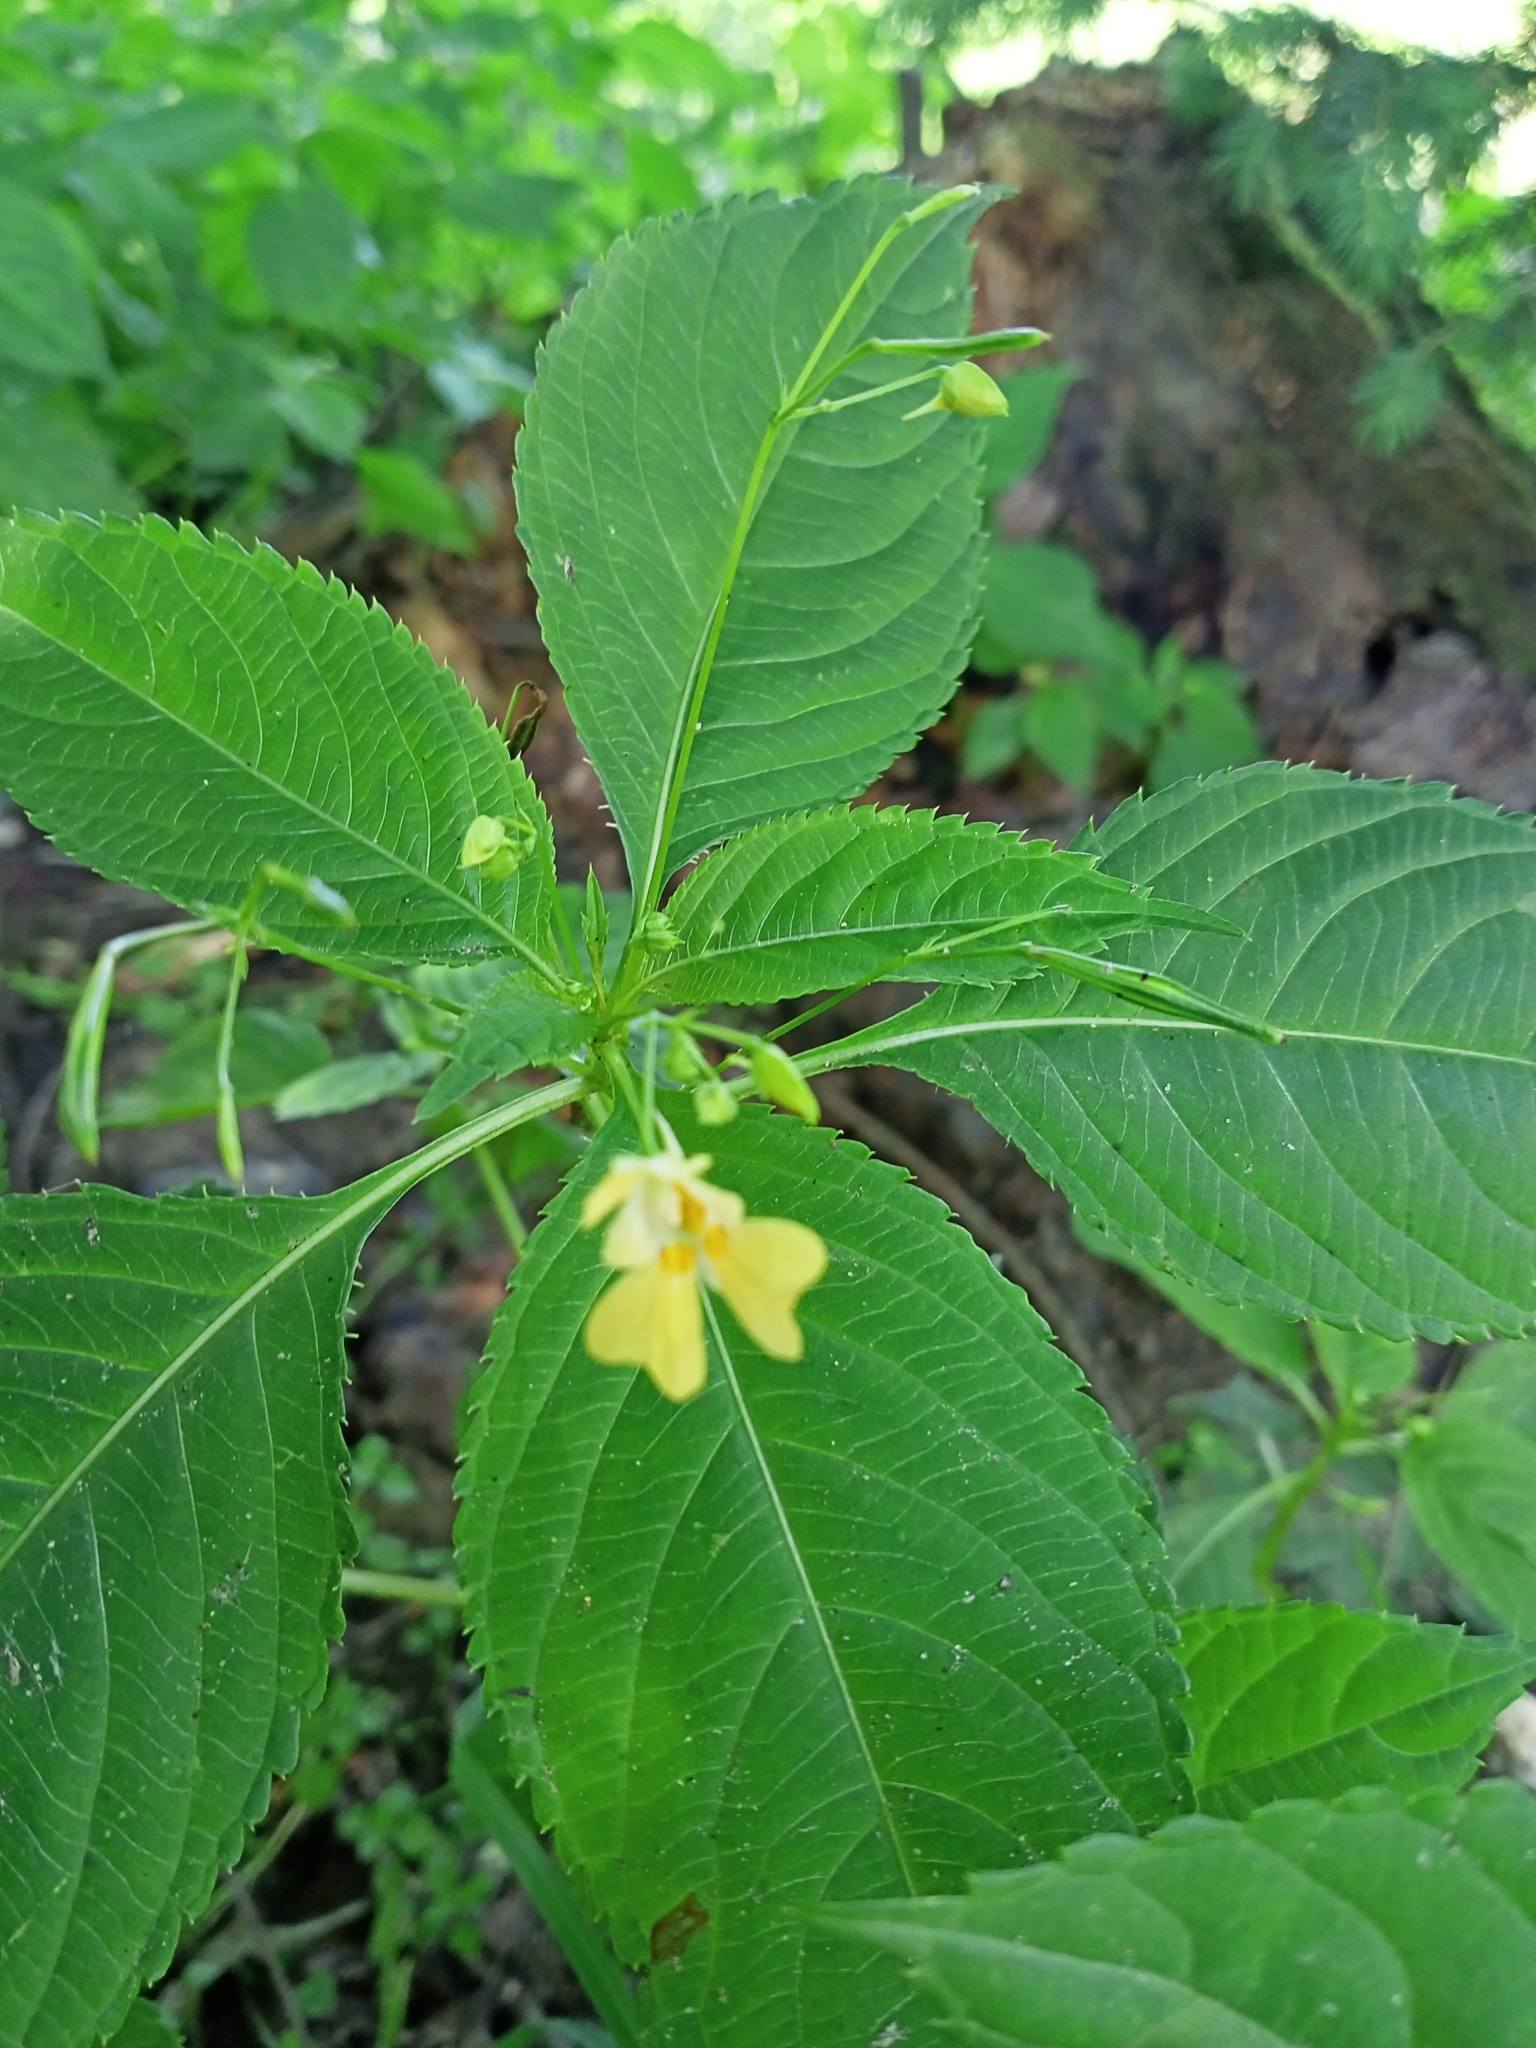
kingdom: Plantae
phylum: Tracheophyta
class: Magnoliopsida
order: Ericales
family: Balsaminaceae
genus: Impatiens
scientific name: Impatiens parviflora
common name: Small balsam
